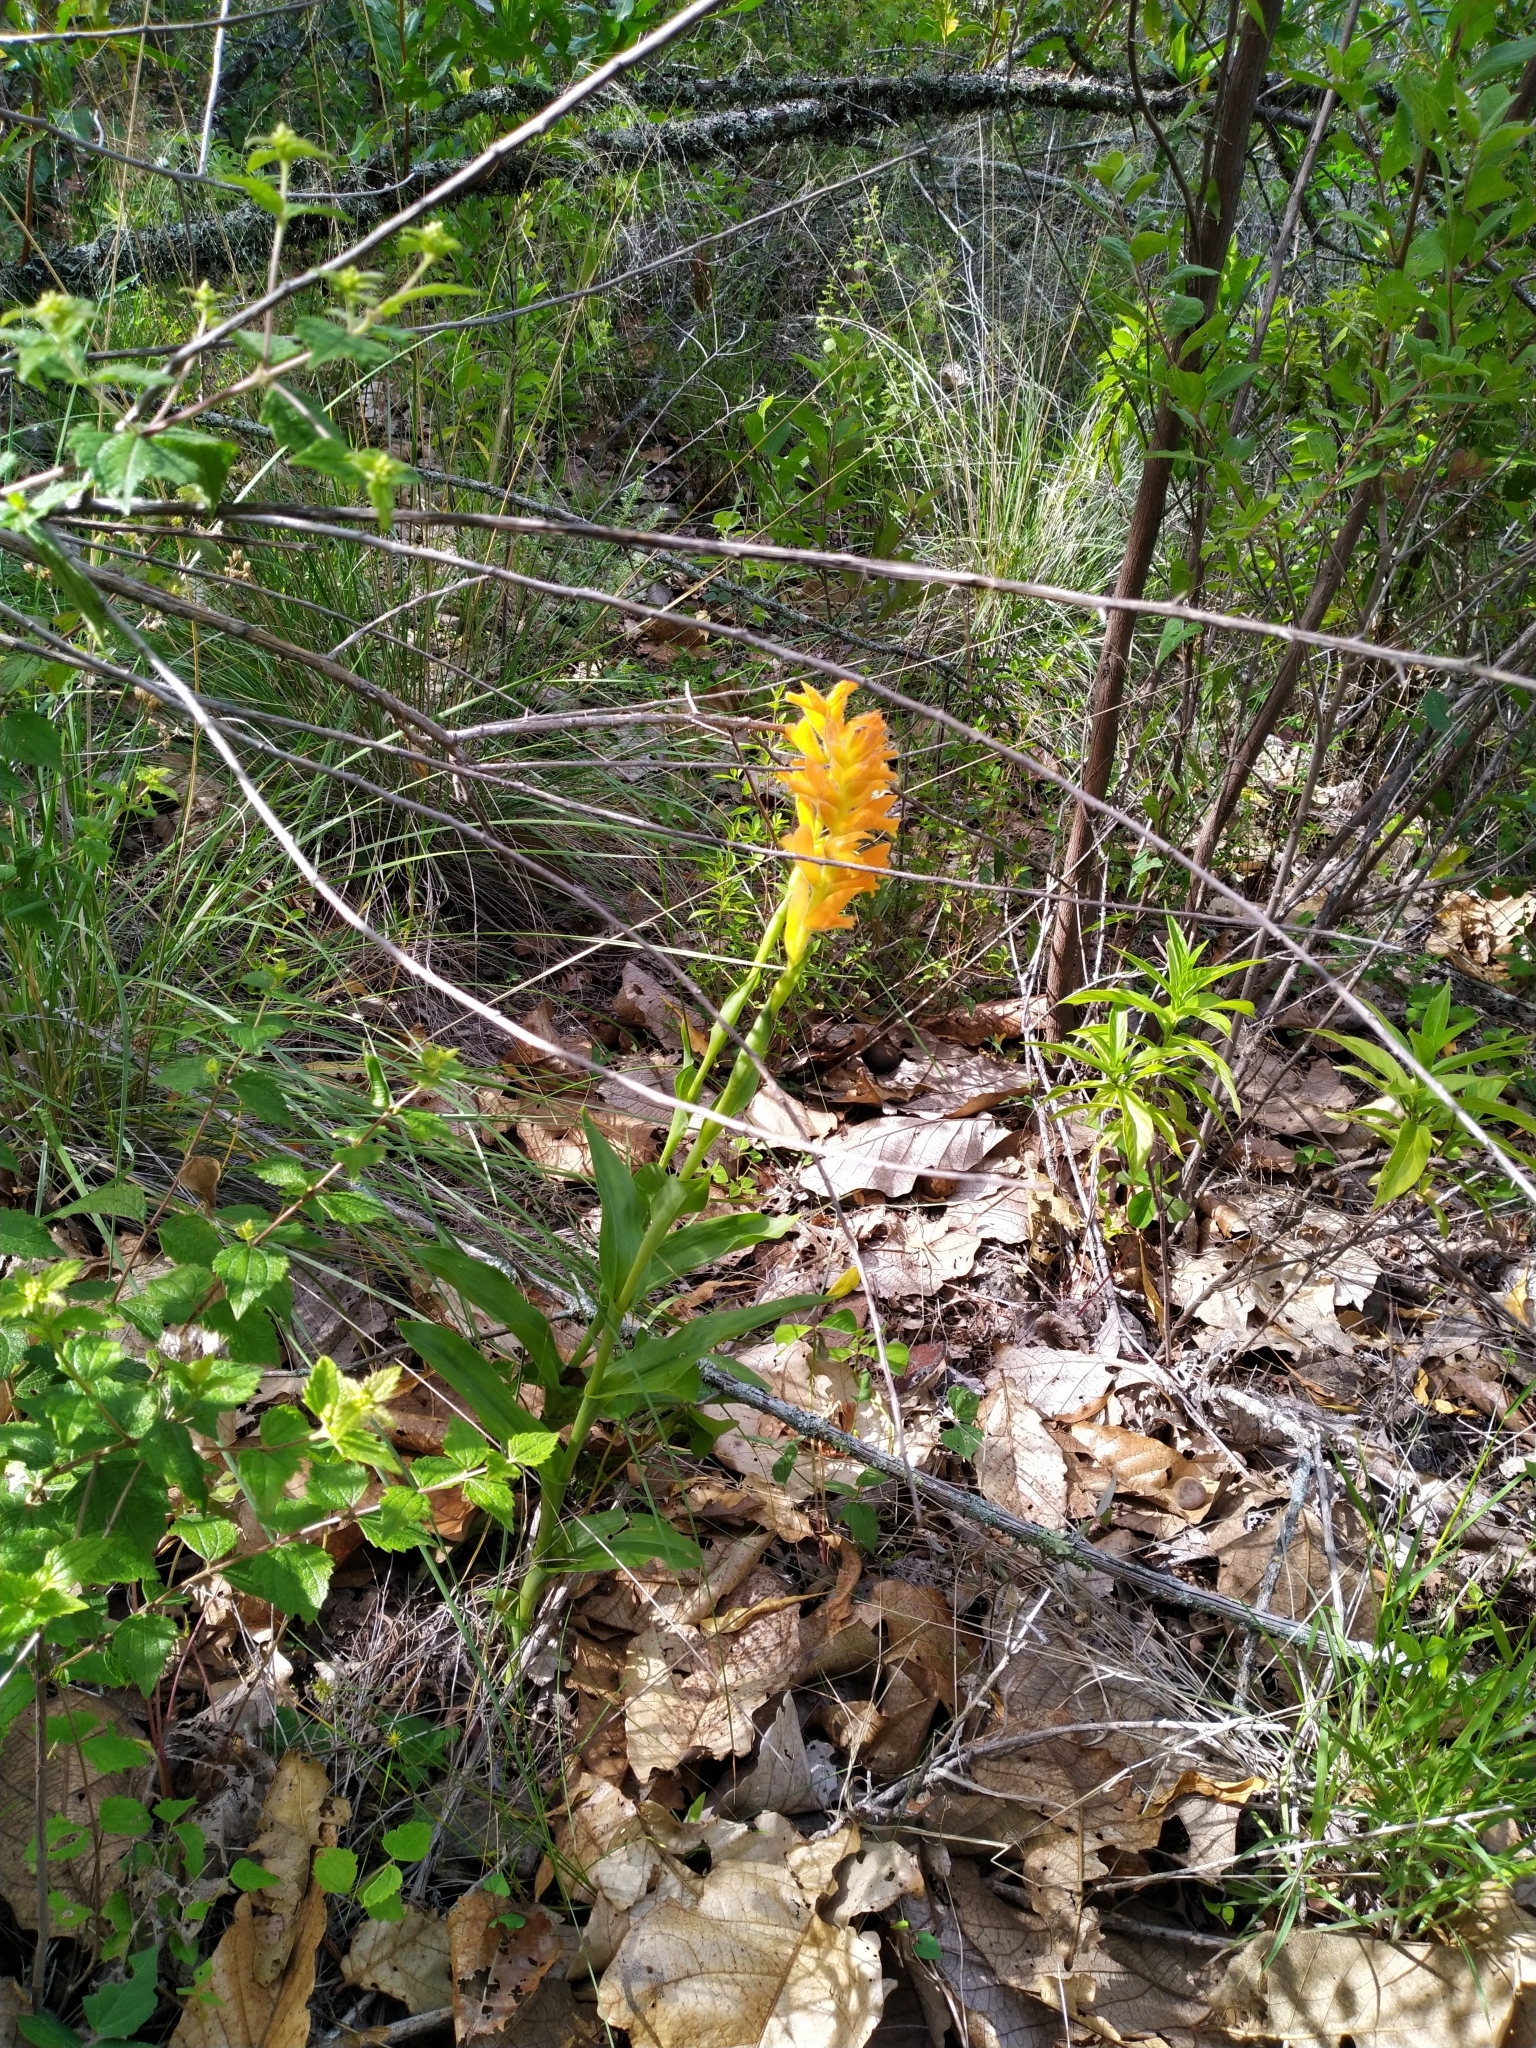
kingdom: Plantae
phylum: Tracheophyta
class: Liliopsida
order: Asparagales
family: Orchidaceae
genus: Dichromanthus
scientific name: Dichromanthus aurantiacus
